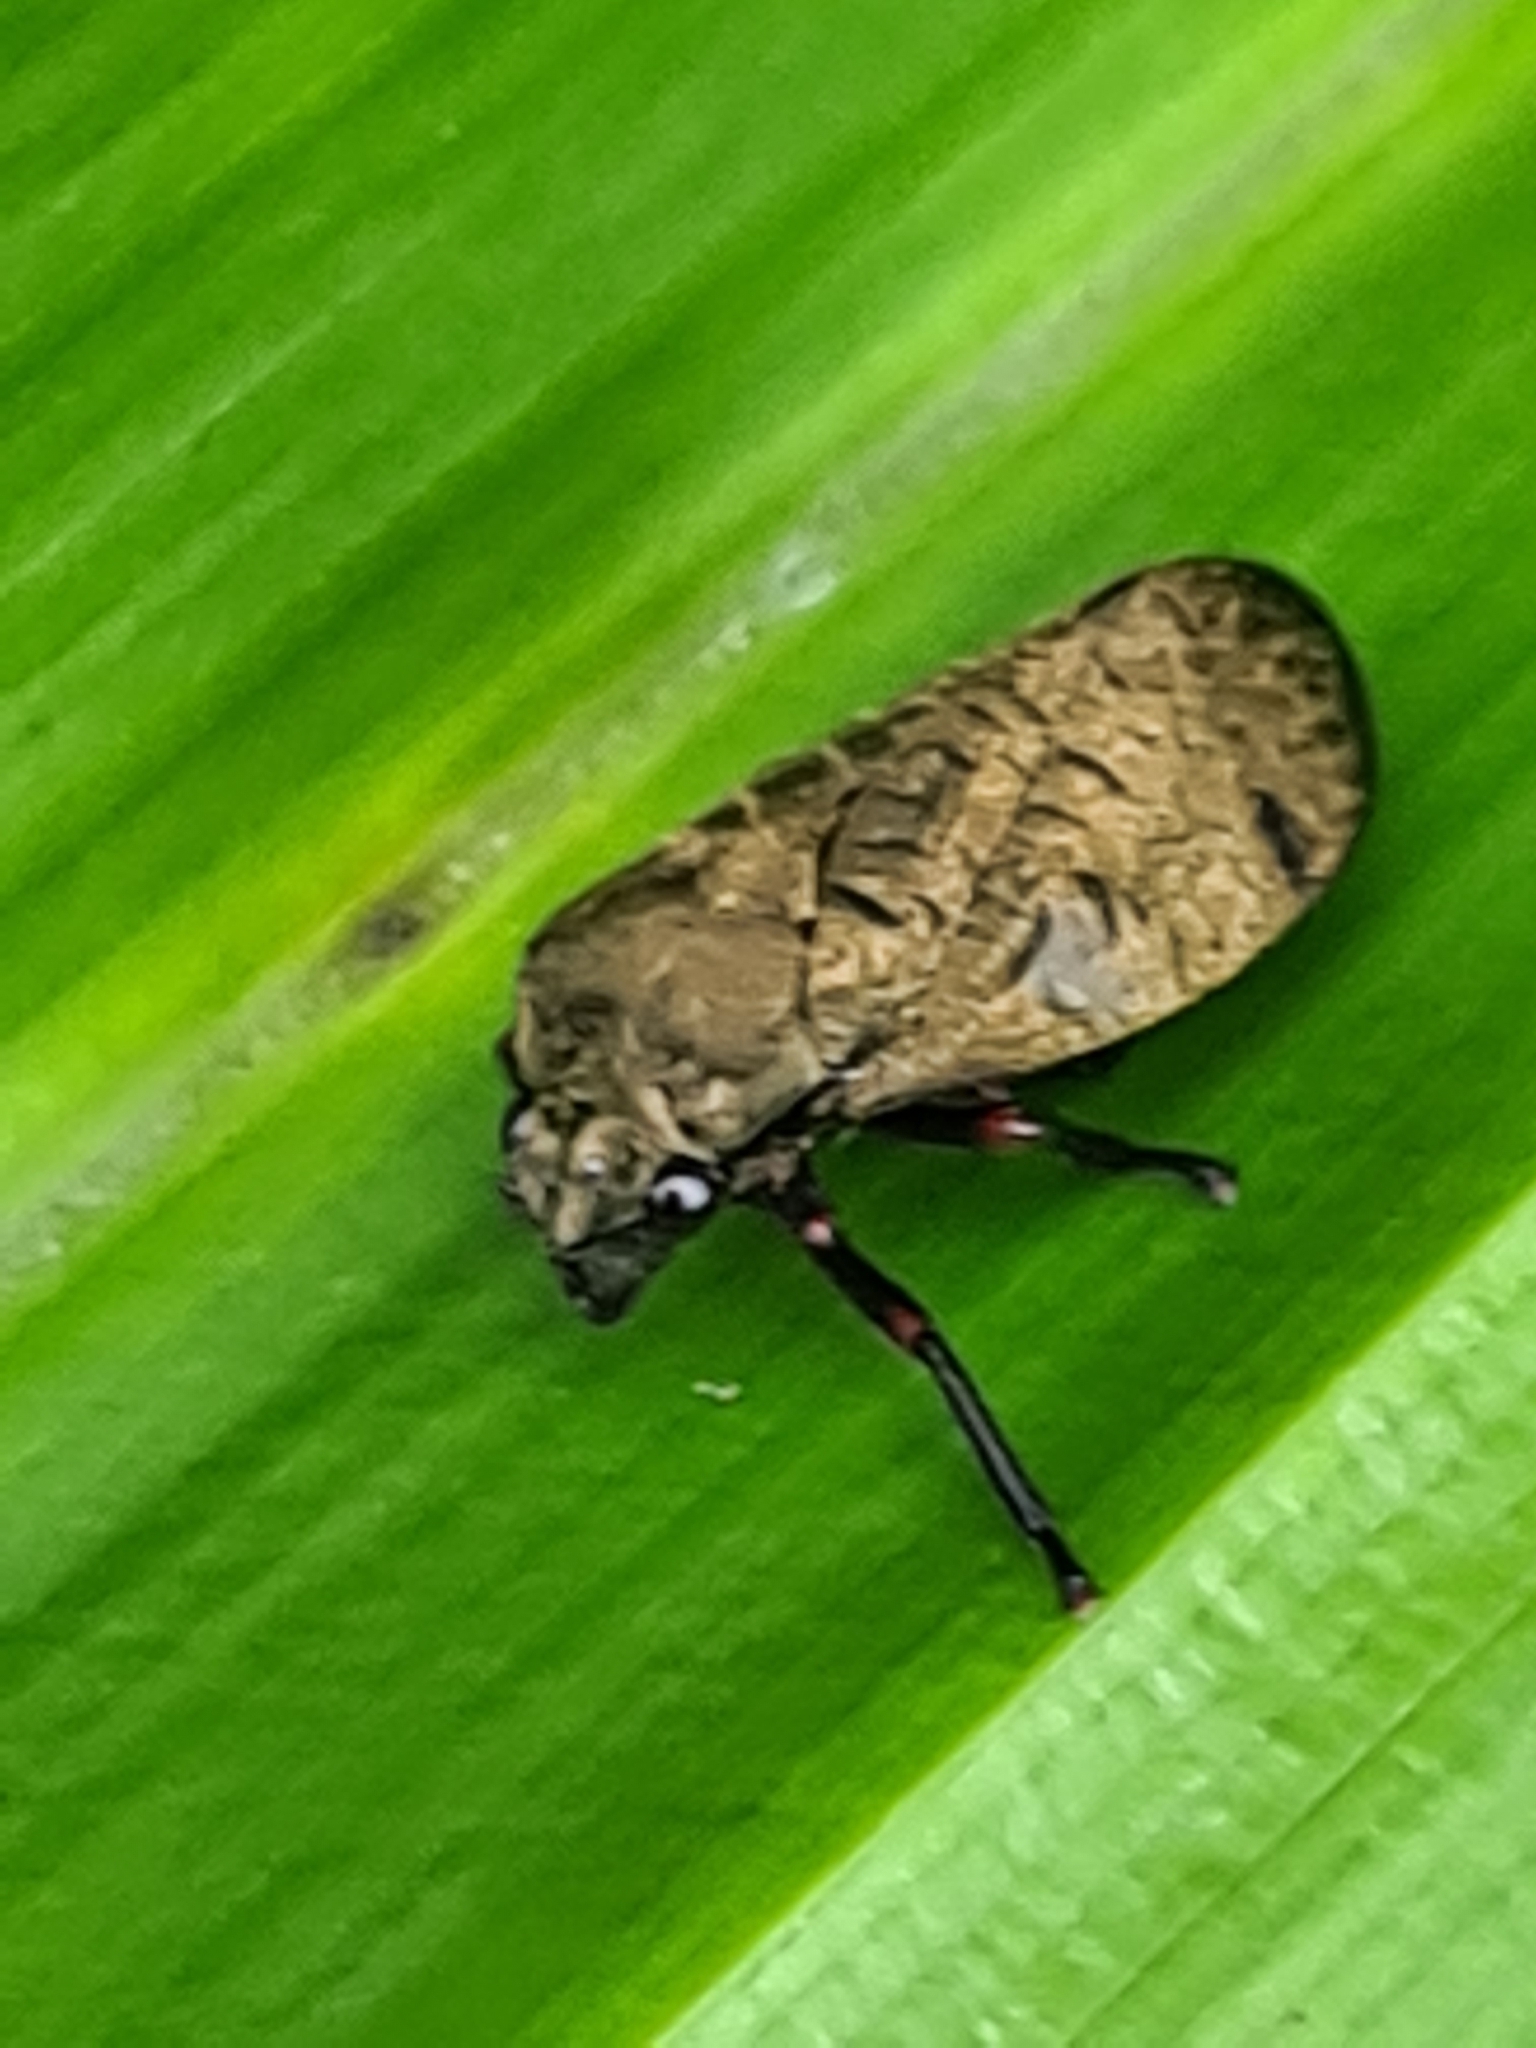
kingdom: Animalia
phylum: Arthropoda
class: Insecta
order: Hemiptera
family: Cercopidae
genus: Zulia
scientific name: Zulia pubescens
